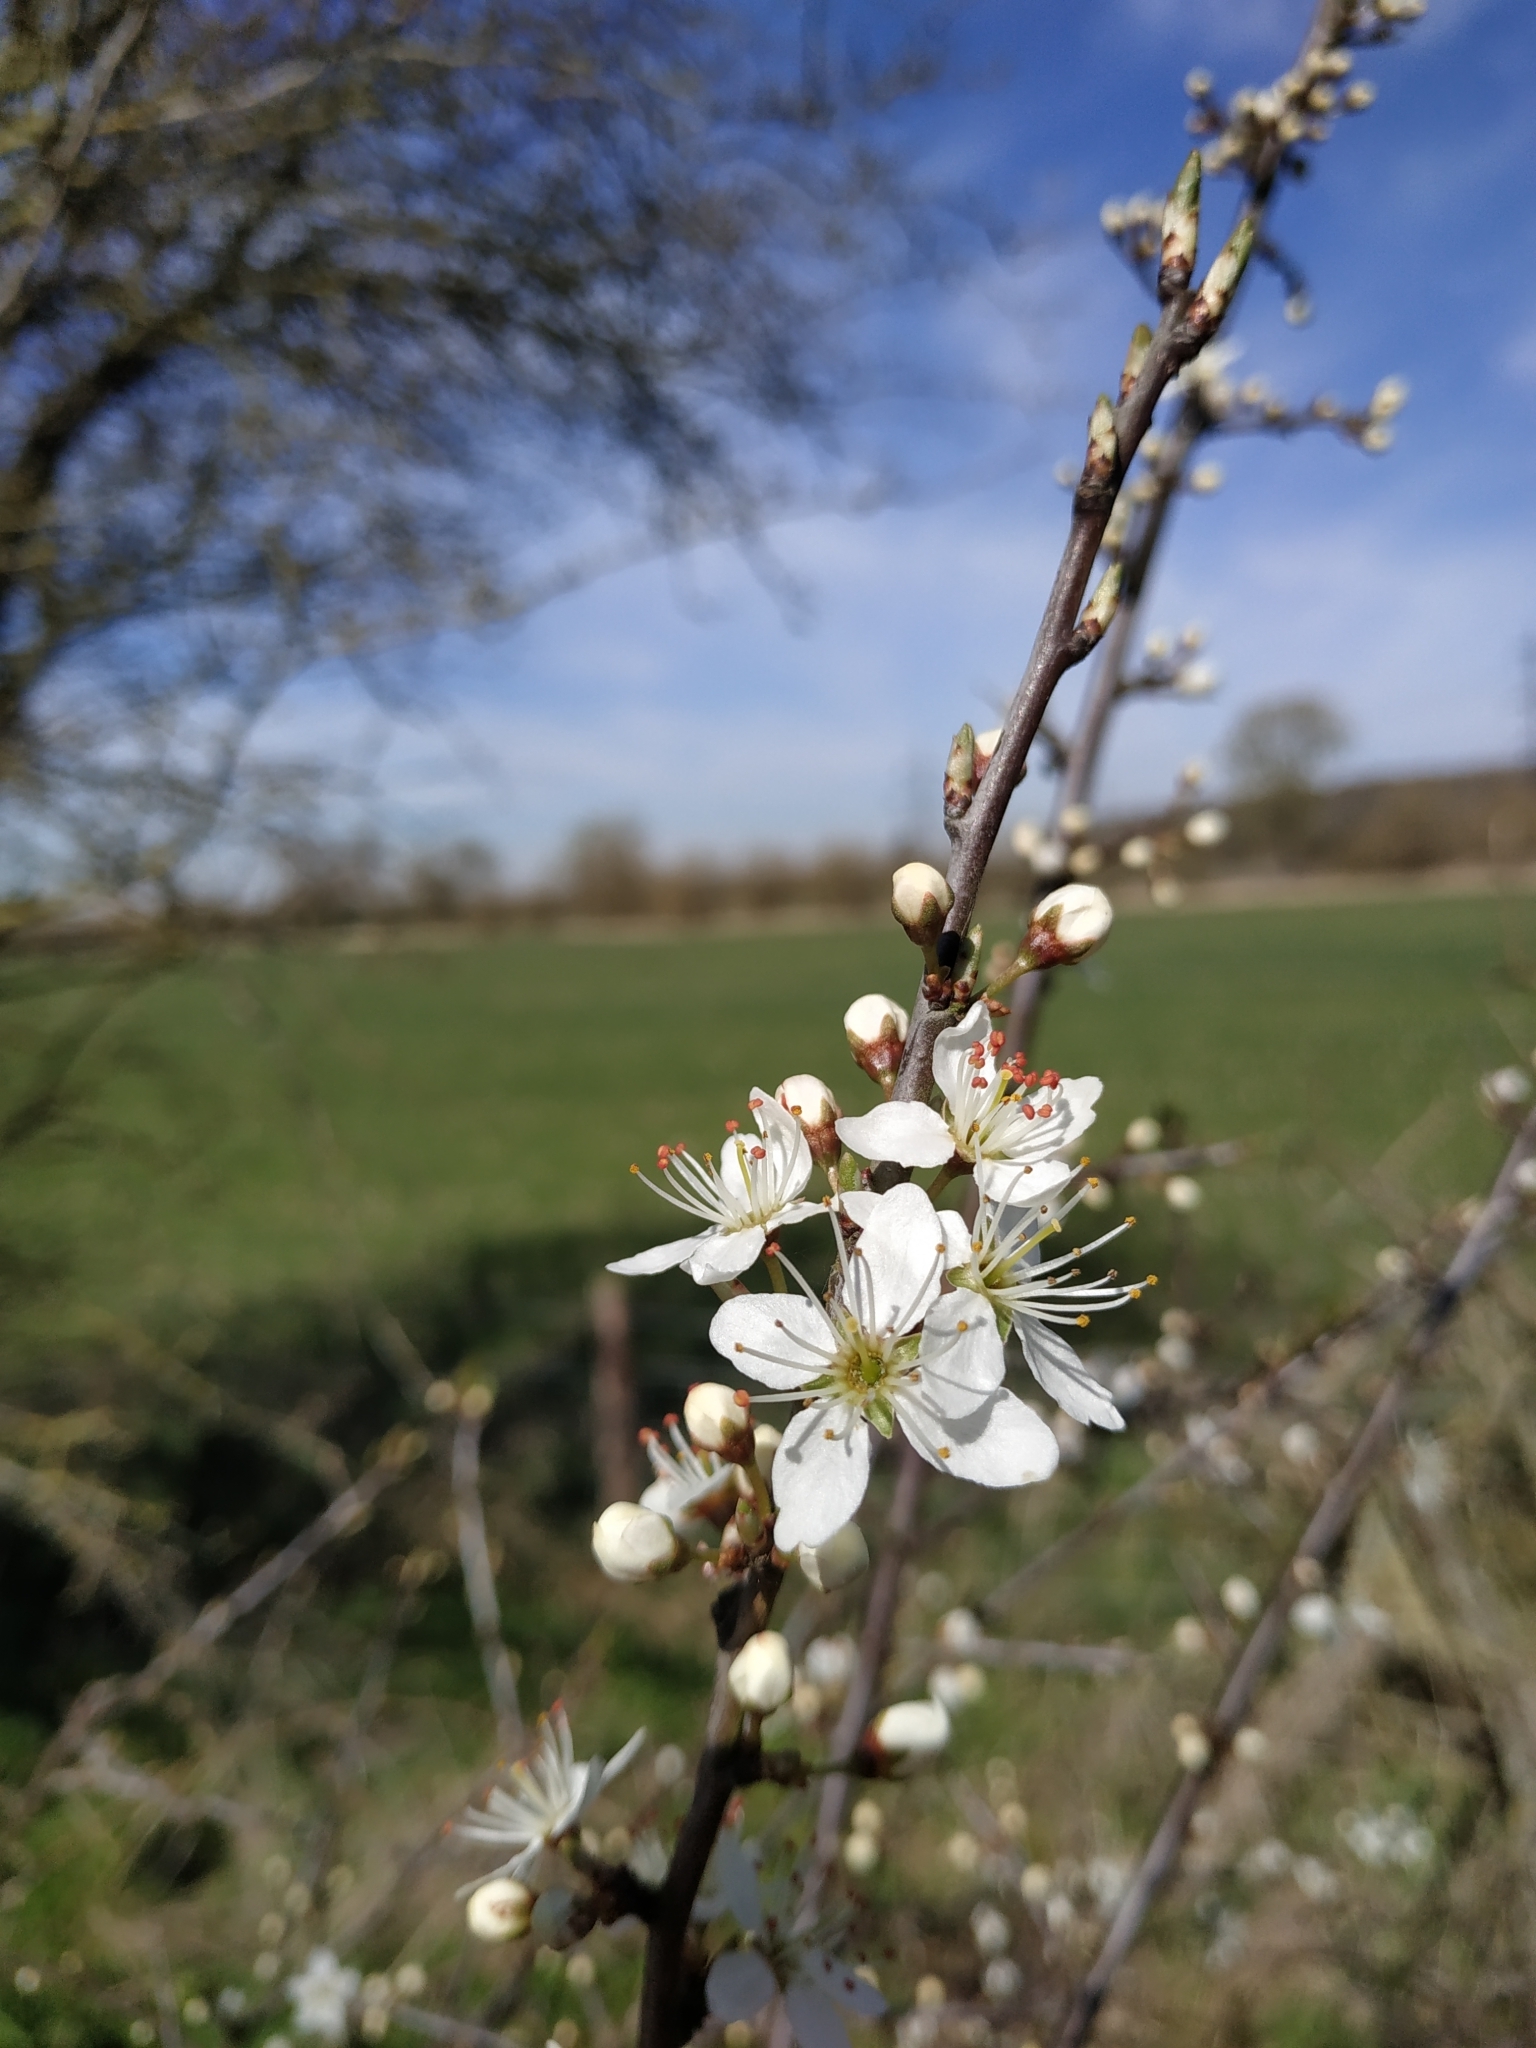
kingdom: Plantae
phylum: Tracheophyta
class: Magnoliopsida
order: Rosales
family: Rosaceae
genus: Prunus
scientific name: Prunus spinosa
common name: Blackthorn
